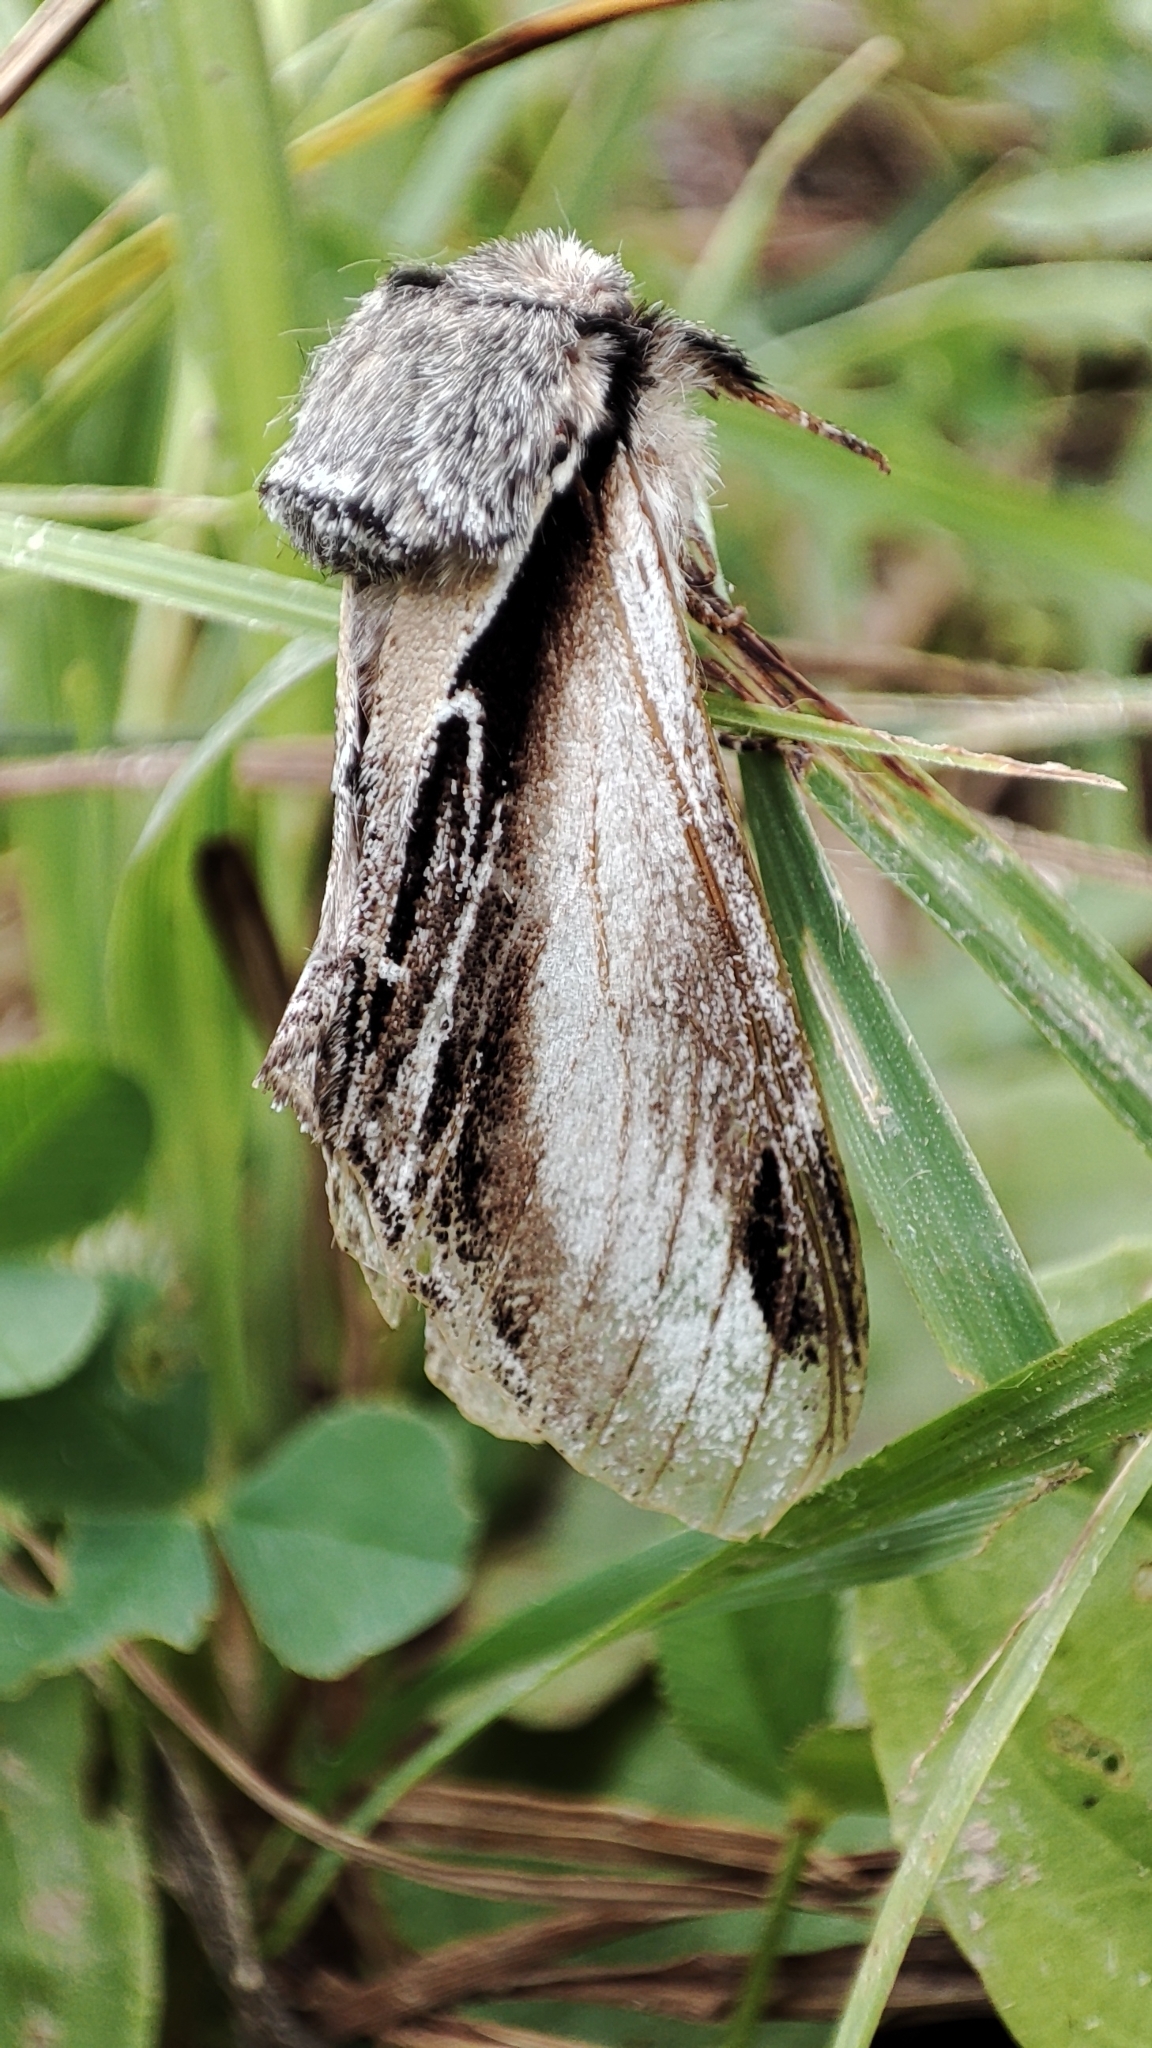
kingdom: Animalia
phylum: Arthropoda
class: Insecta
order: Lepidoptera
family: Notodontidae
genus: Pheosia
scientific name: Pheosia tremula
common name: Swallow prominent
